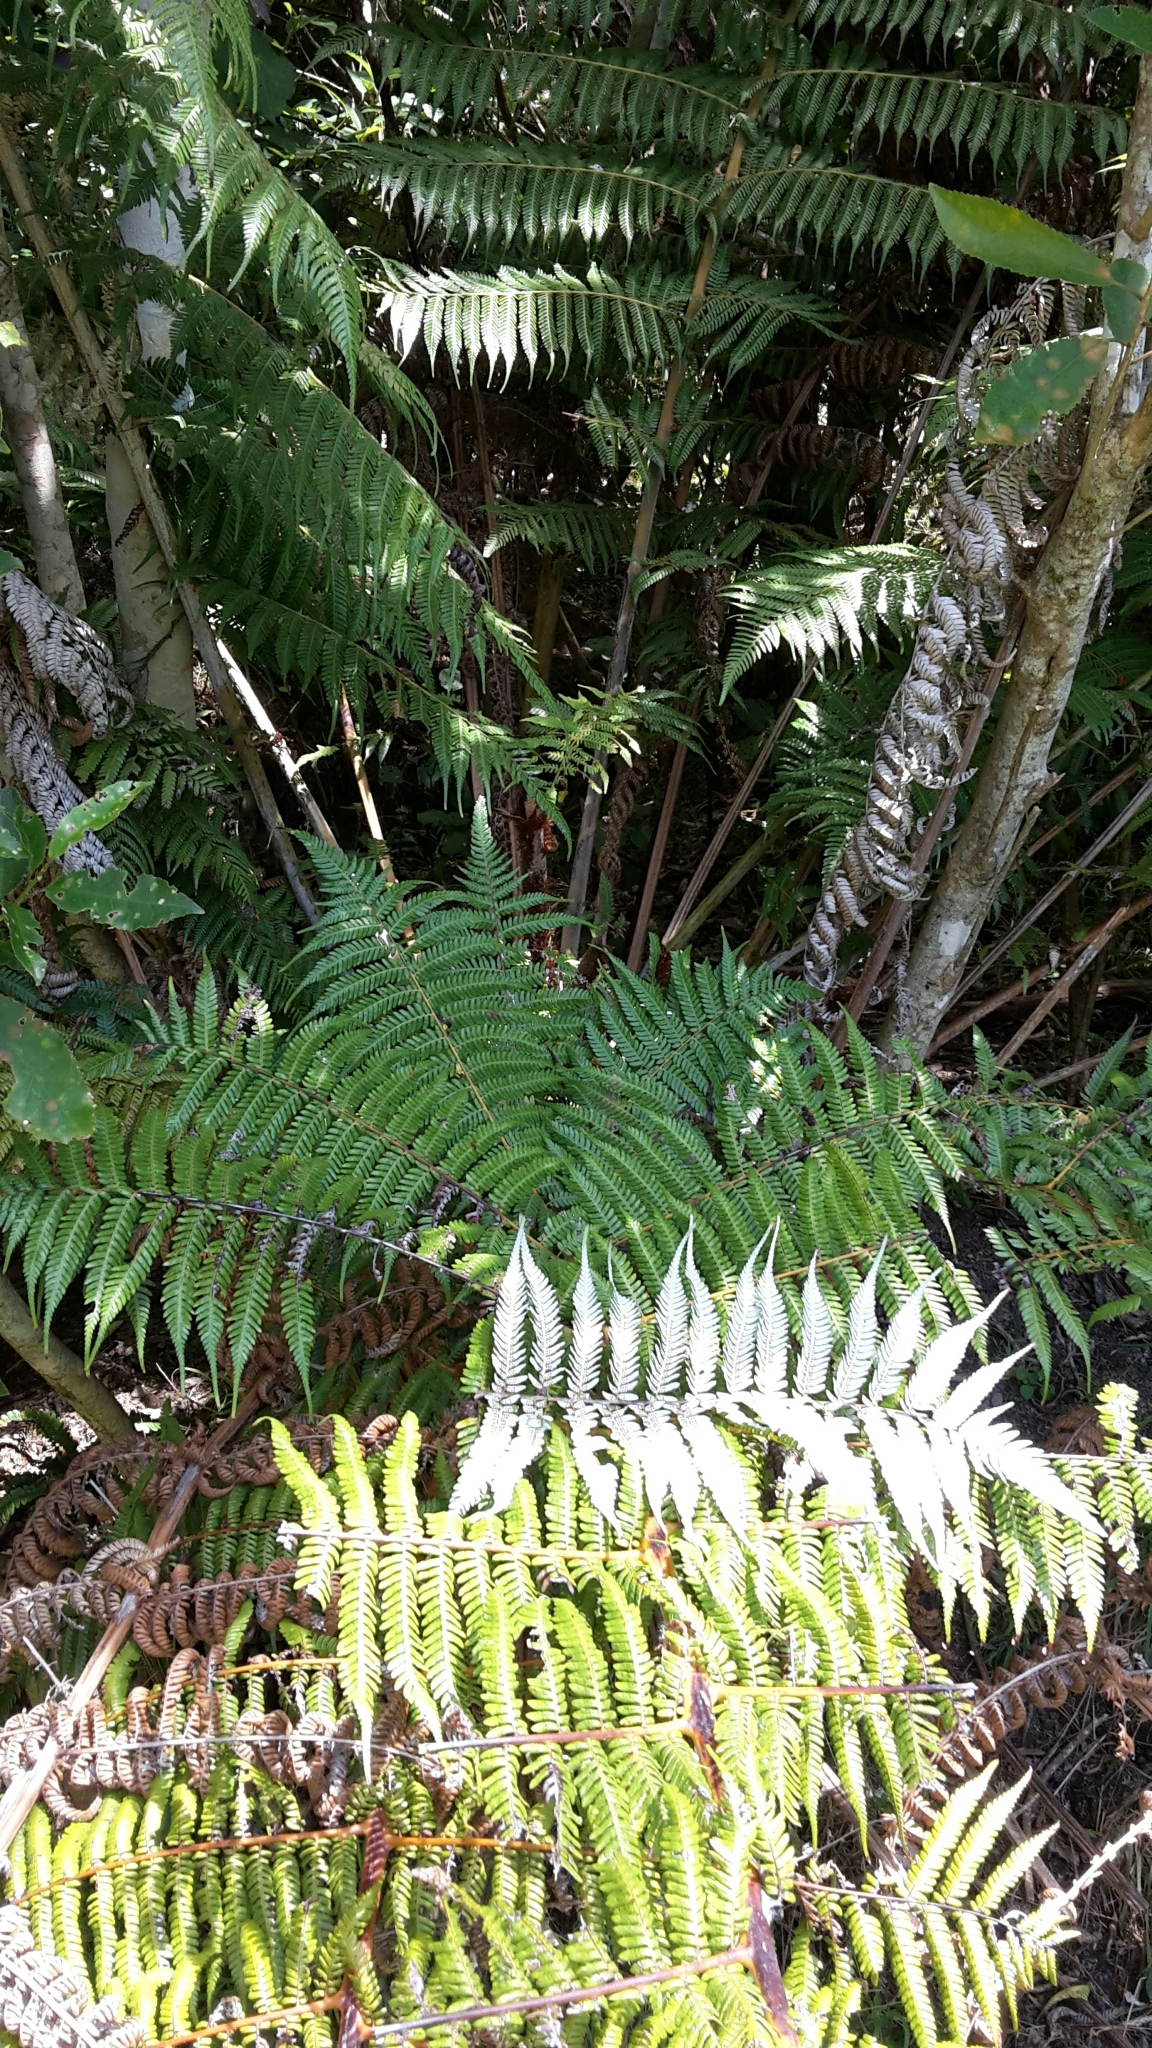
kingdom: Plantae
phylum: Tracheophyta
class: Polypodiopsida
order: Cyatheales
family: Cyatheaceae
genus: Alsophila
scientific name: Alsophila dealbata
